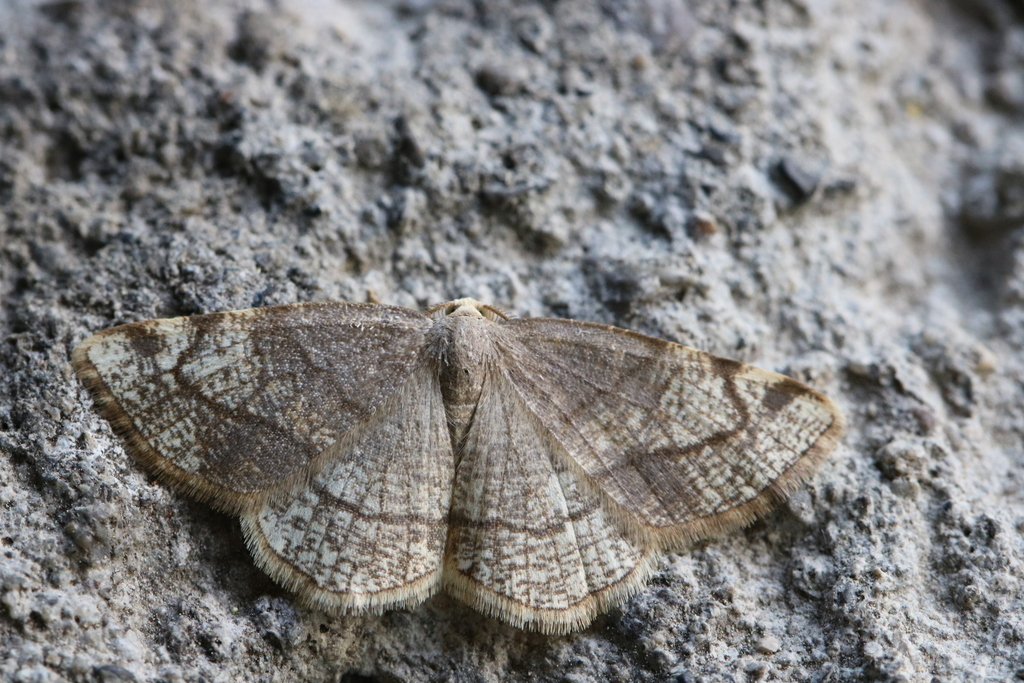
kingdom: Animalia
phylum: Arthropoda
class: Insecta
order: Lepidoptera
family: Geometridae
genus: Stegania
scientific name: Stegania trimaculata
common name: Dorset cream wave
